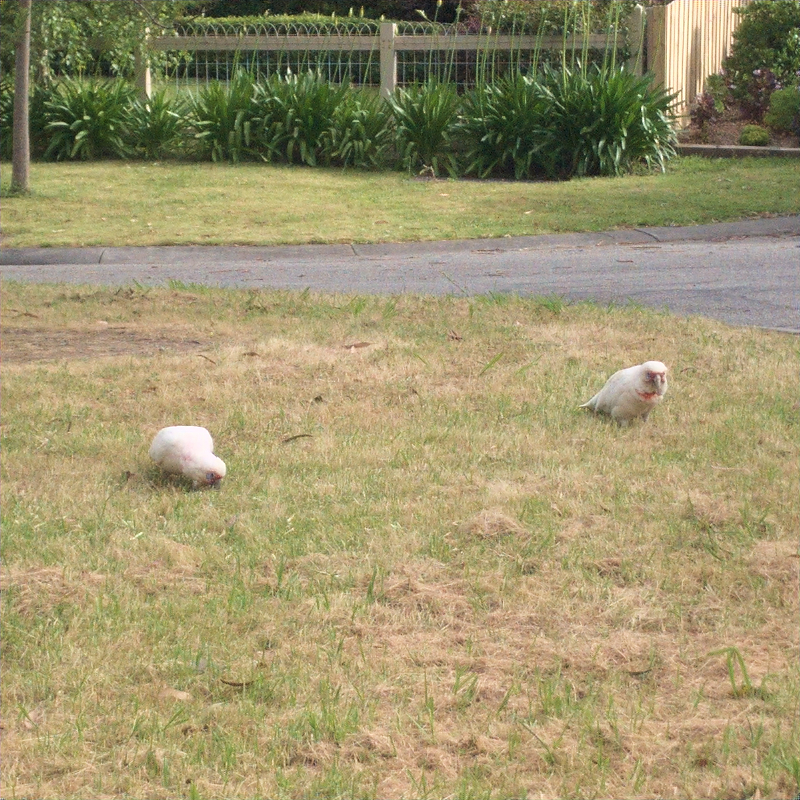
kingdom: Animalia
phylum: Chordata
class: Aves
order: Psittaciformes
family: Psittacidae
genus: Cacatua
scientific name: Cacatua tenuirostris
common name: Long-billed corella
